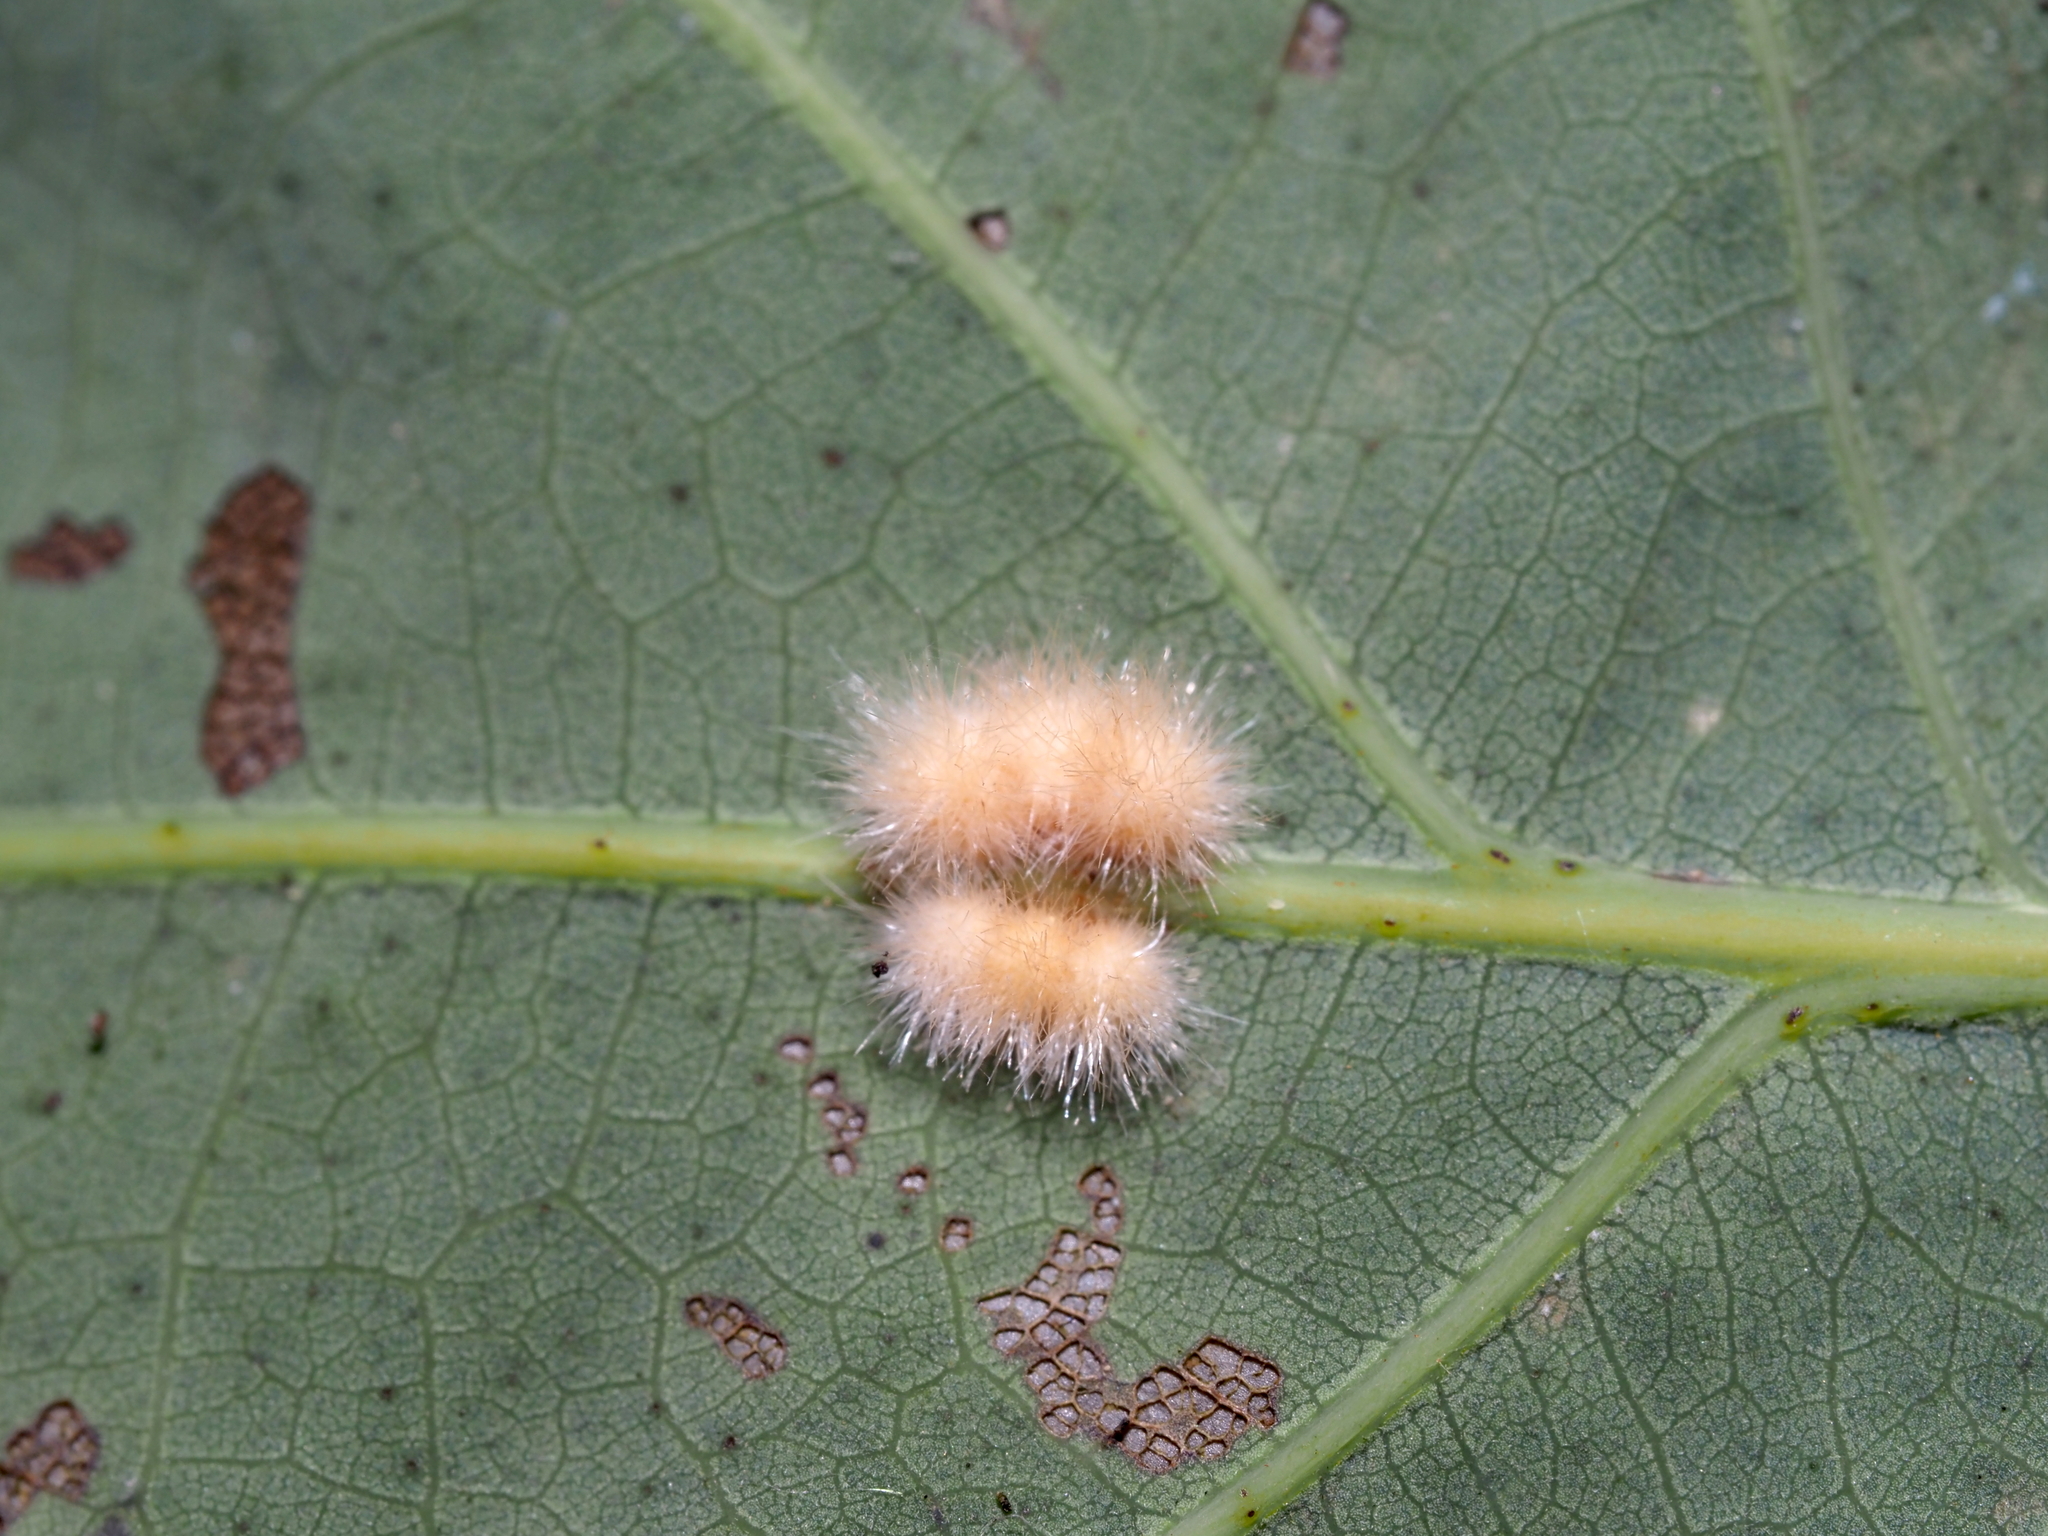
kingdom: Animalia
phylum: Arthropoda
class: Insecta
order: Hymenoptera
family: Cynipidae
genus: Andricus
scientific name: Andricus
